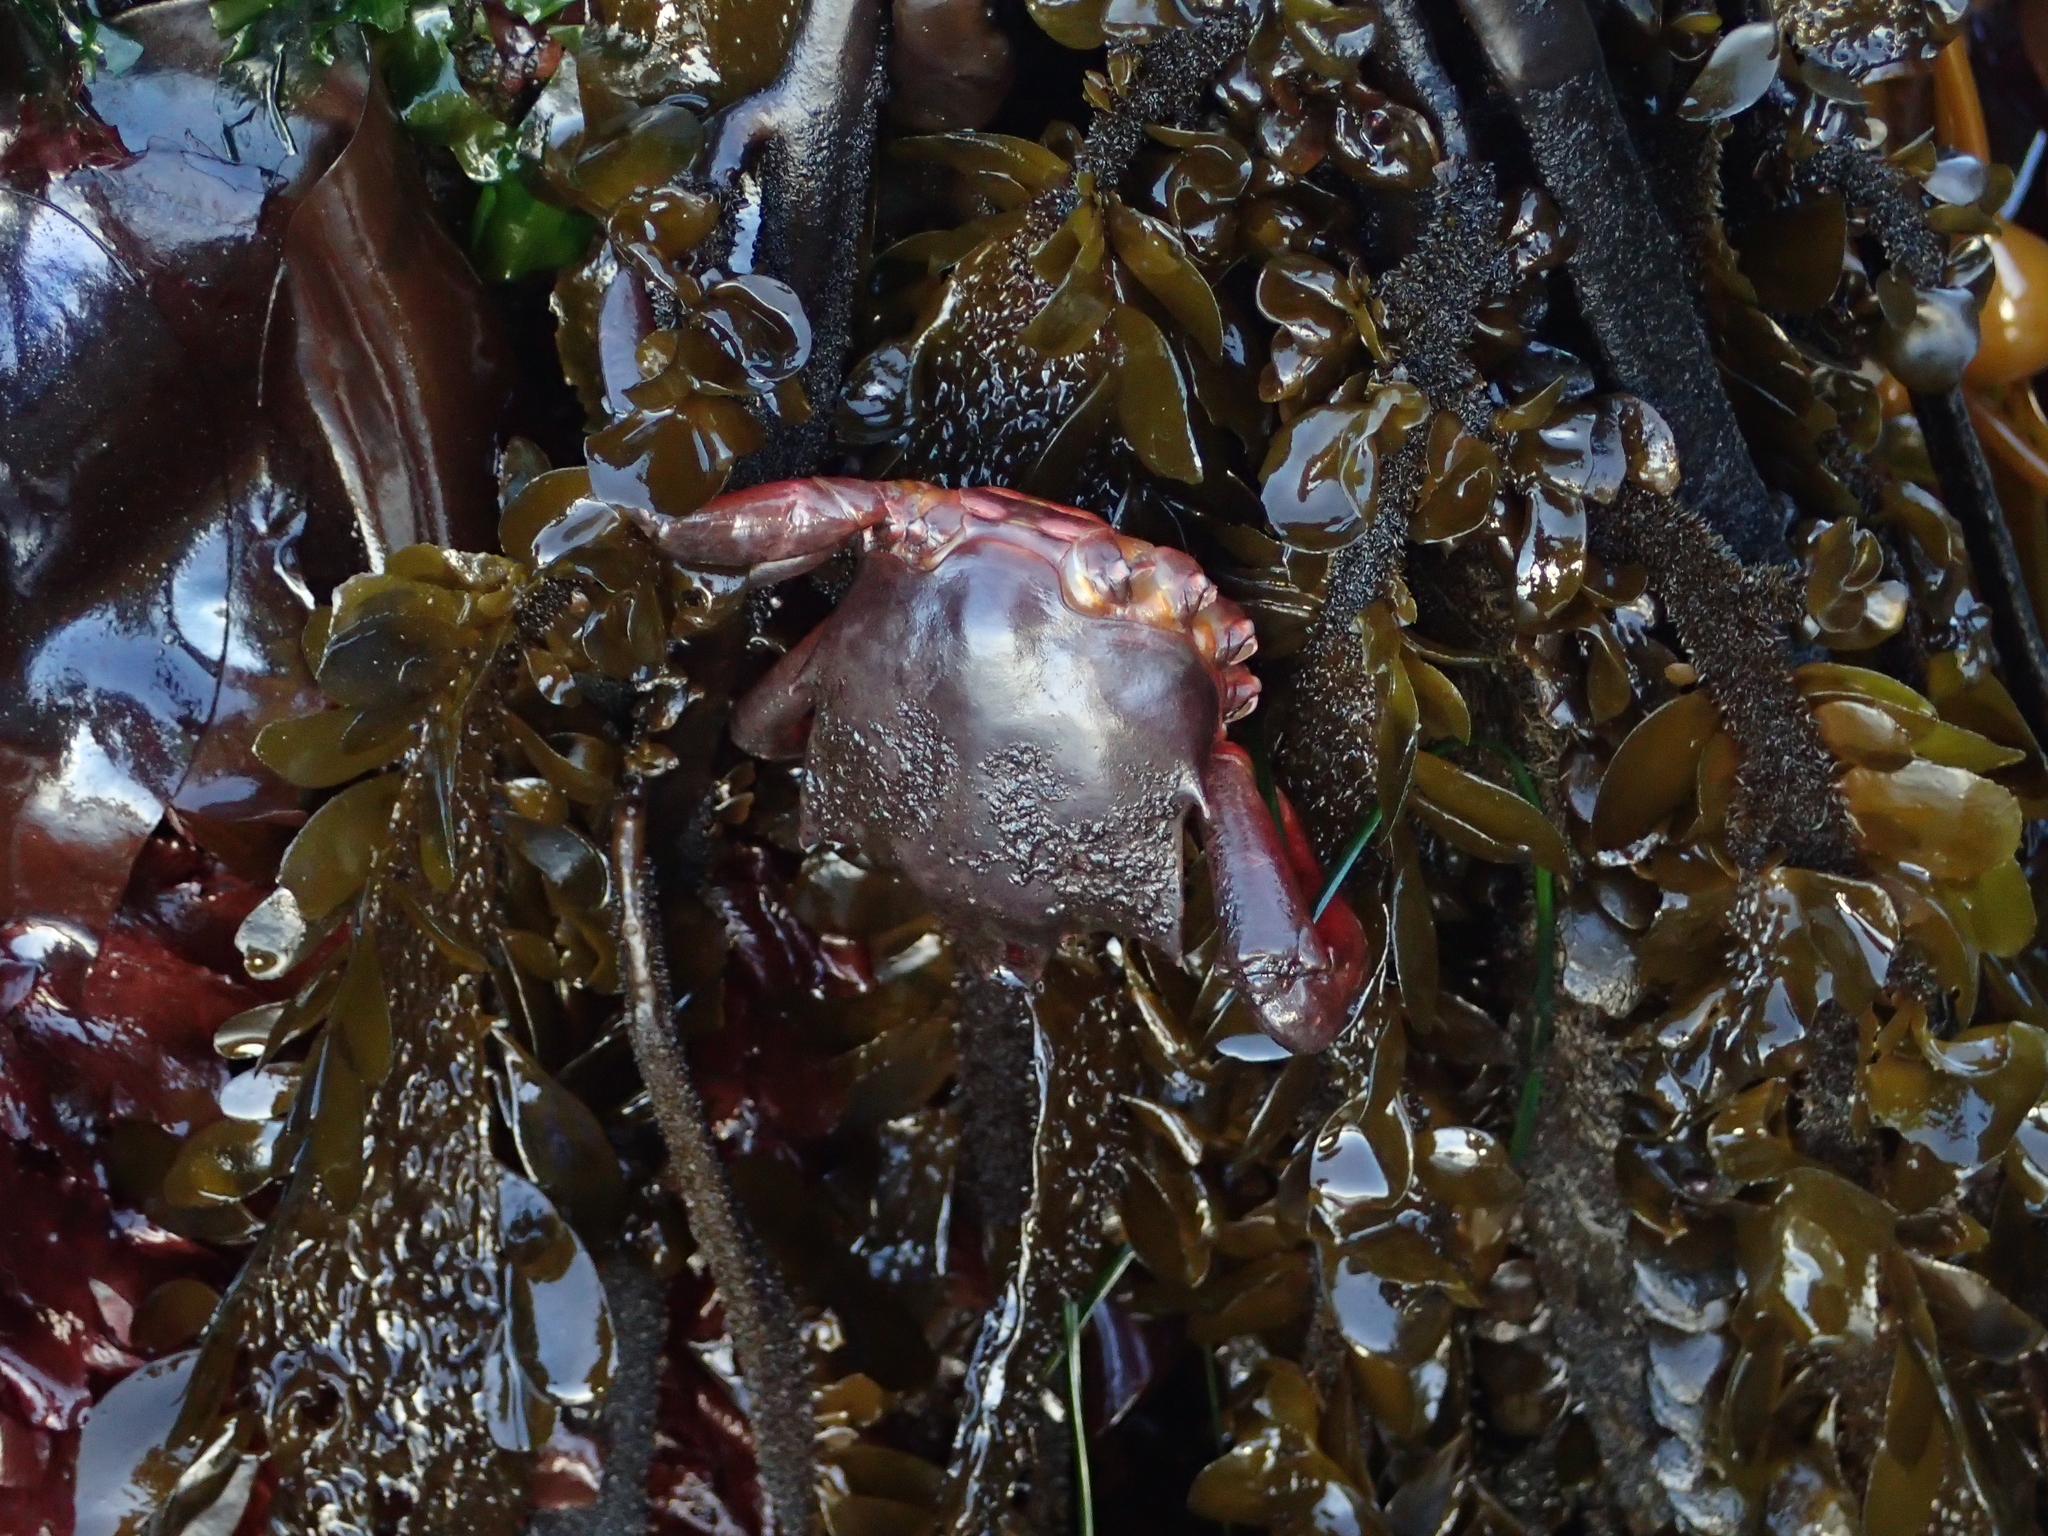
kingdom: Animalia
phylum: Arthropoda
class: Malacostraca
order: Decapoda
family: Epialtidae
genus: Pugettia
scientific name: Pugettia producta
